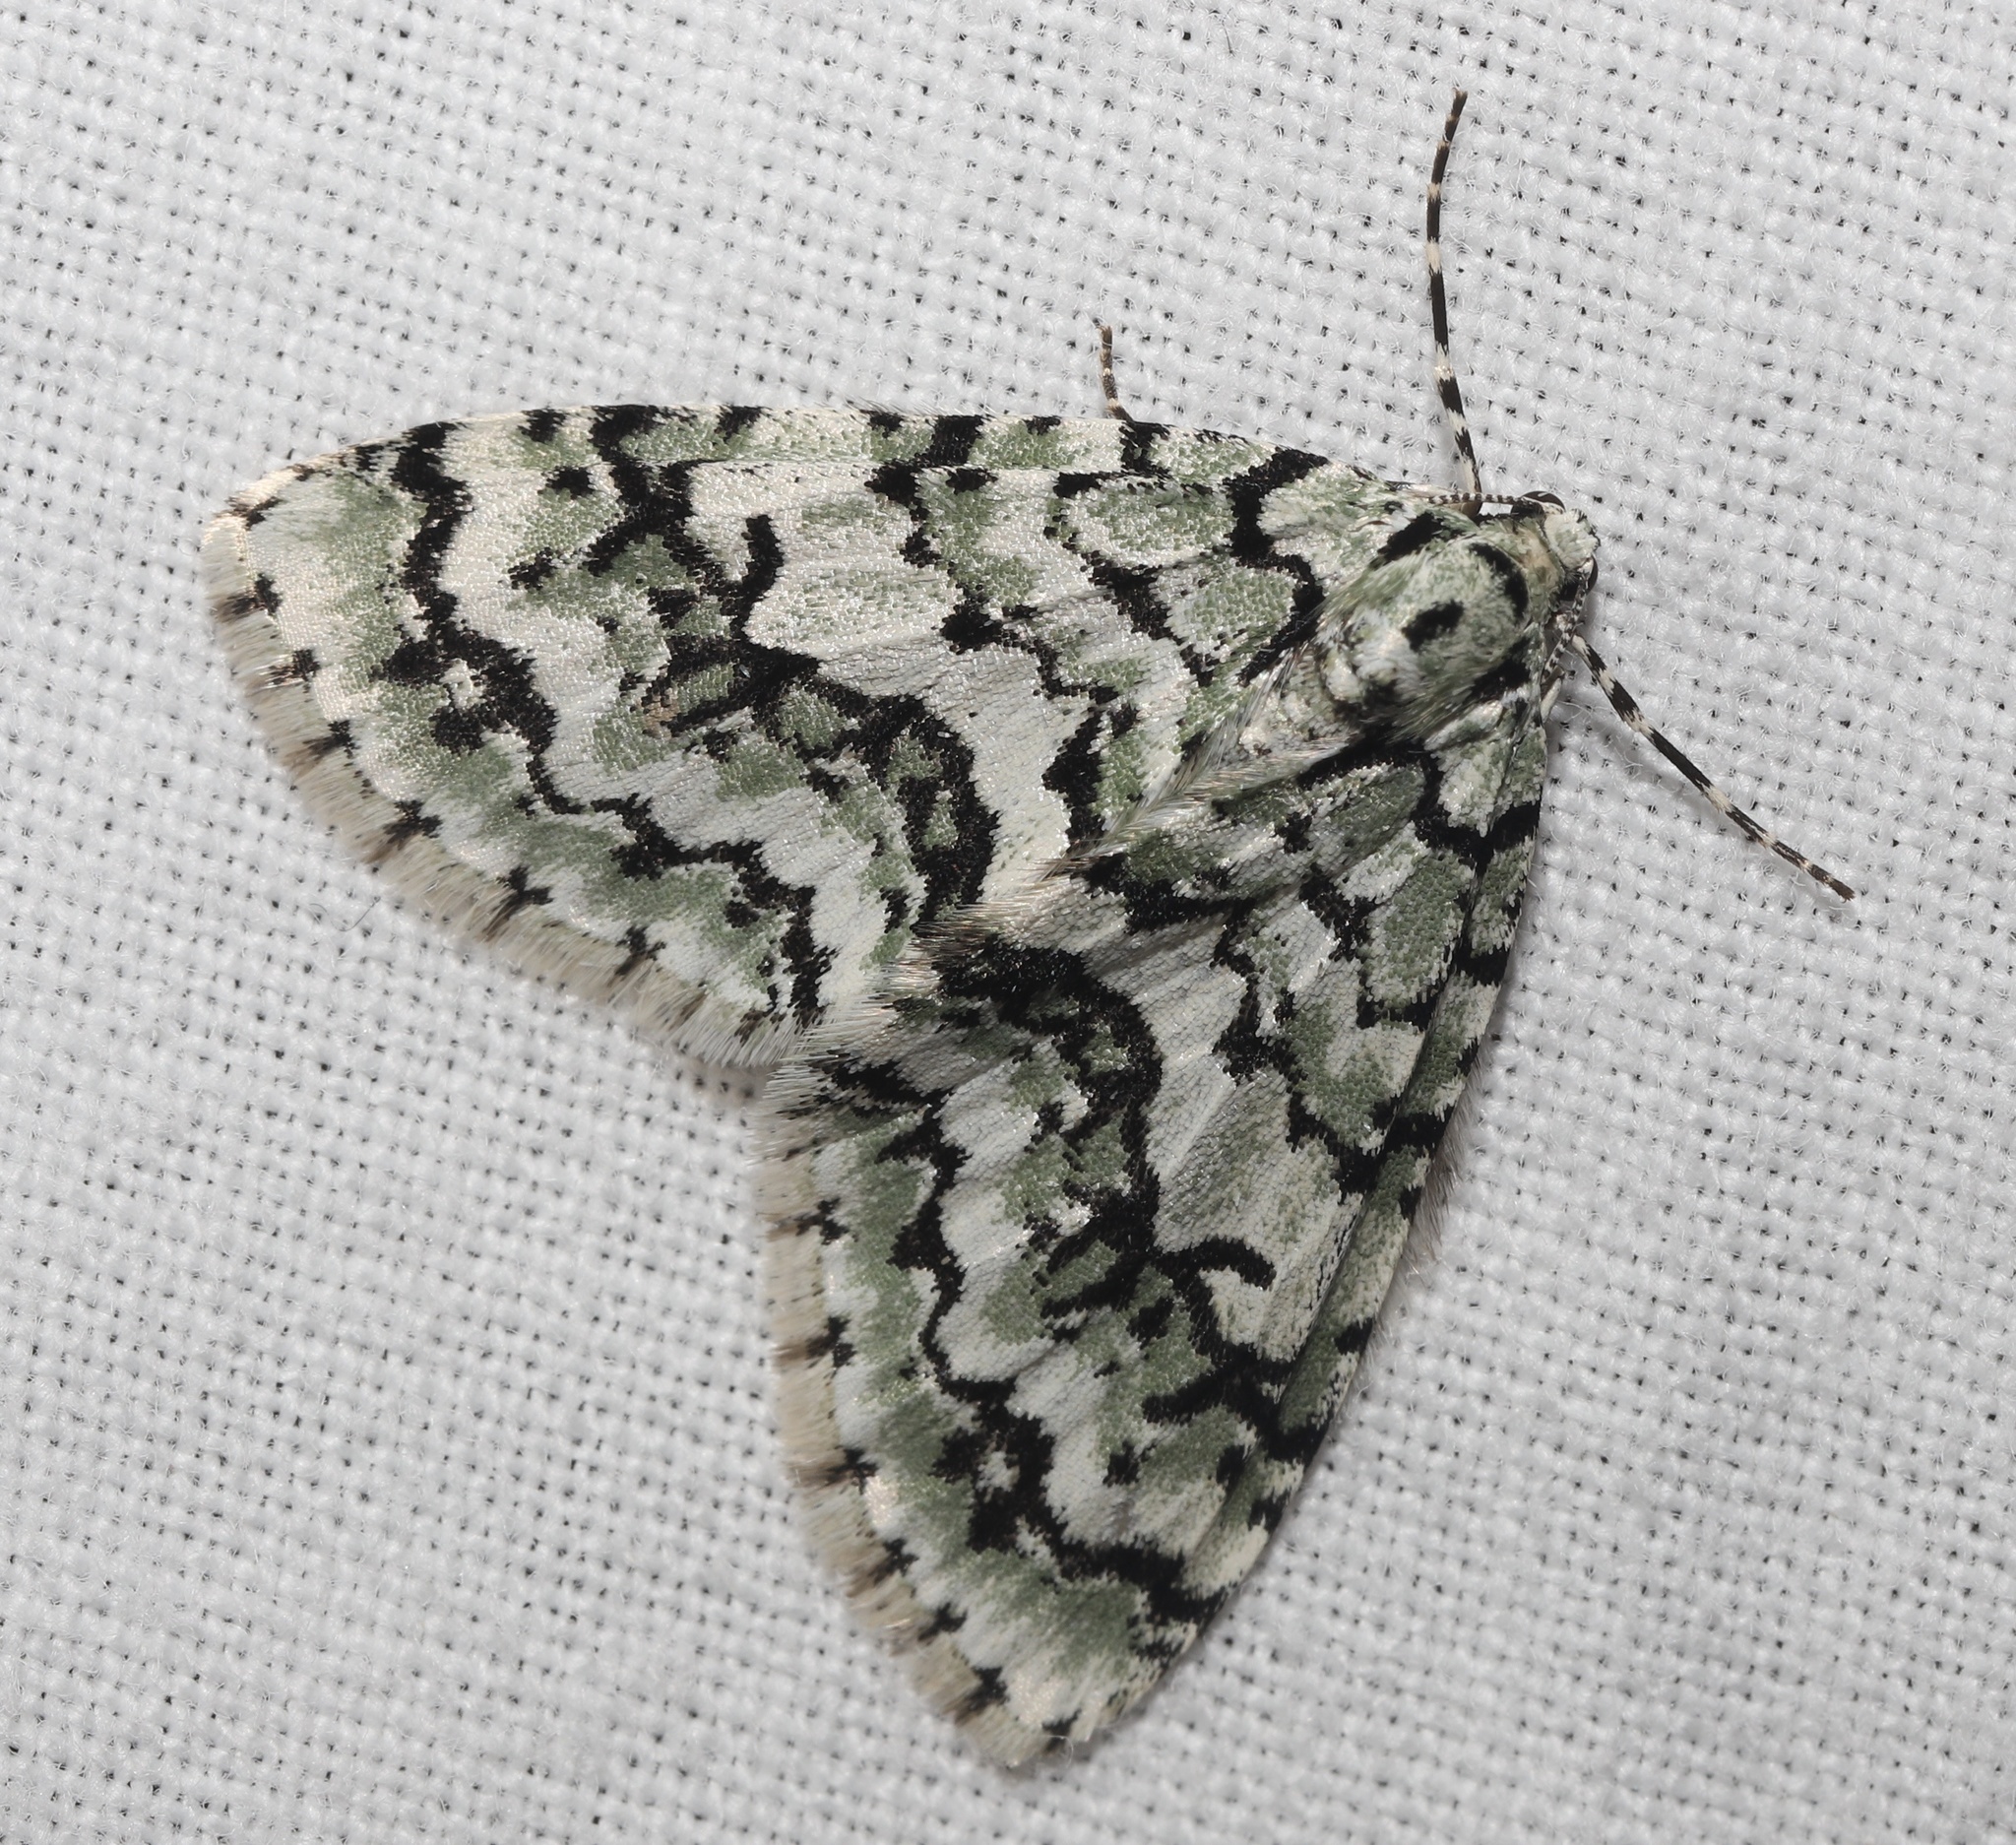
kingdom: Animalia
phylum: Arthropoda
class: Insecta
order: Lepidoptera
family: Geometridae
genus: Cladara
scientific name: Cladara atroliturata
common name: Scribbler
